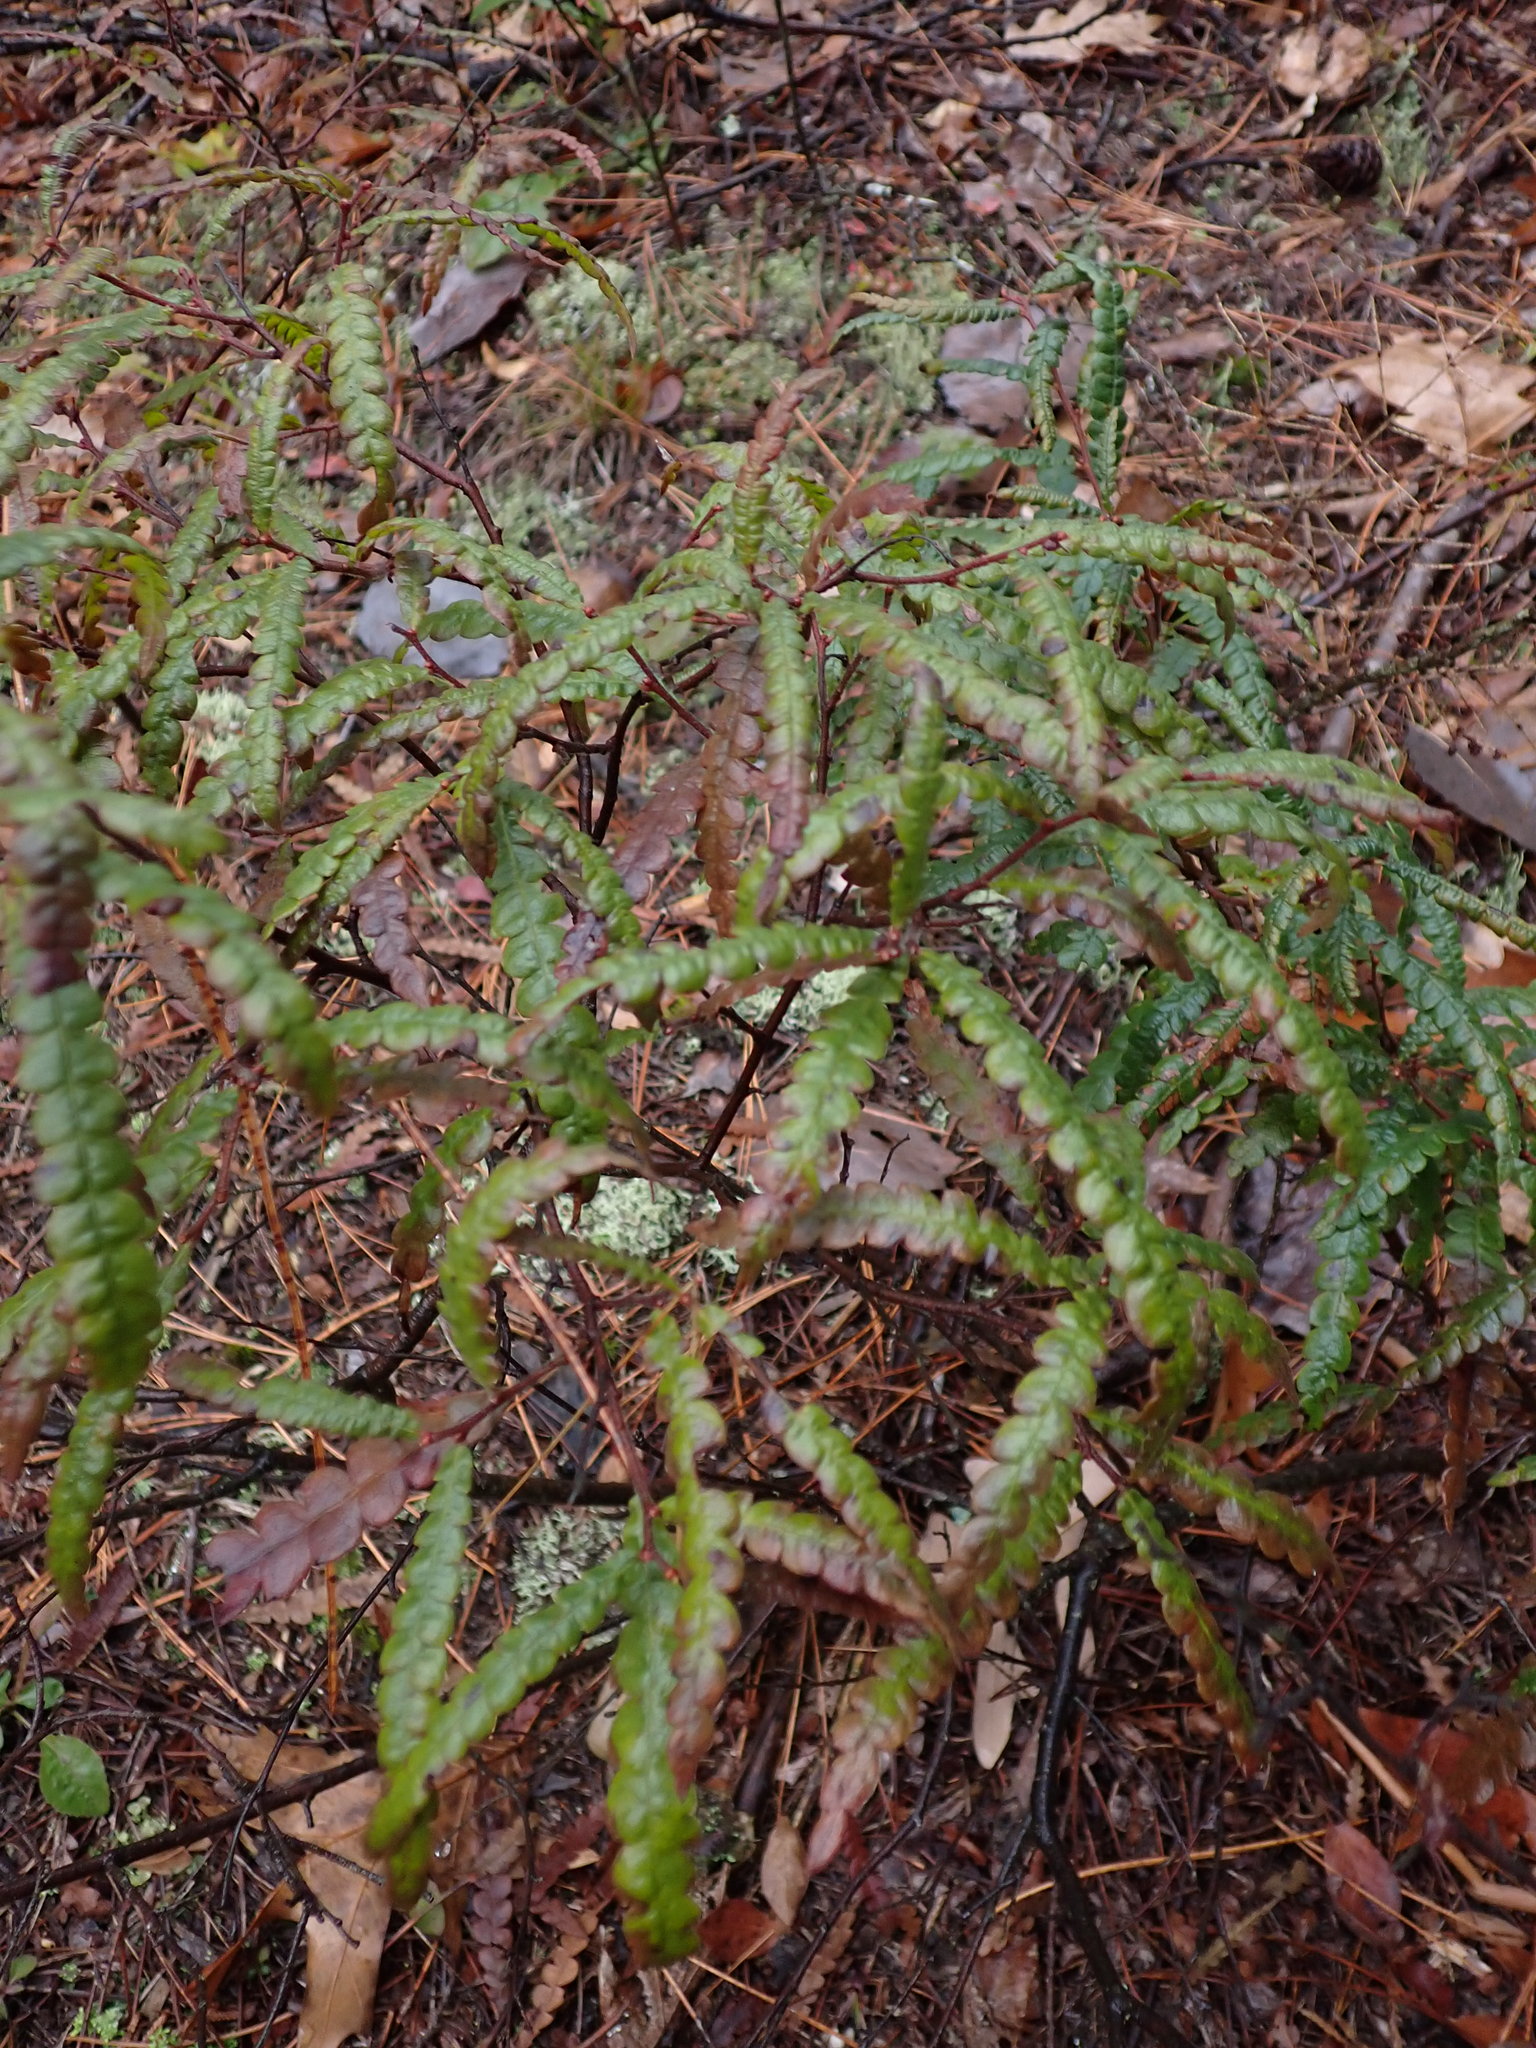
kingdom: Plantae
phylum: Tracheophyta
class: Magnoliopsida
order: Fagales
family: Myricaceae
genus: Comptonia
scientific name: Comptonia peregrina
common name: Sweet-fern
